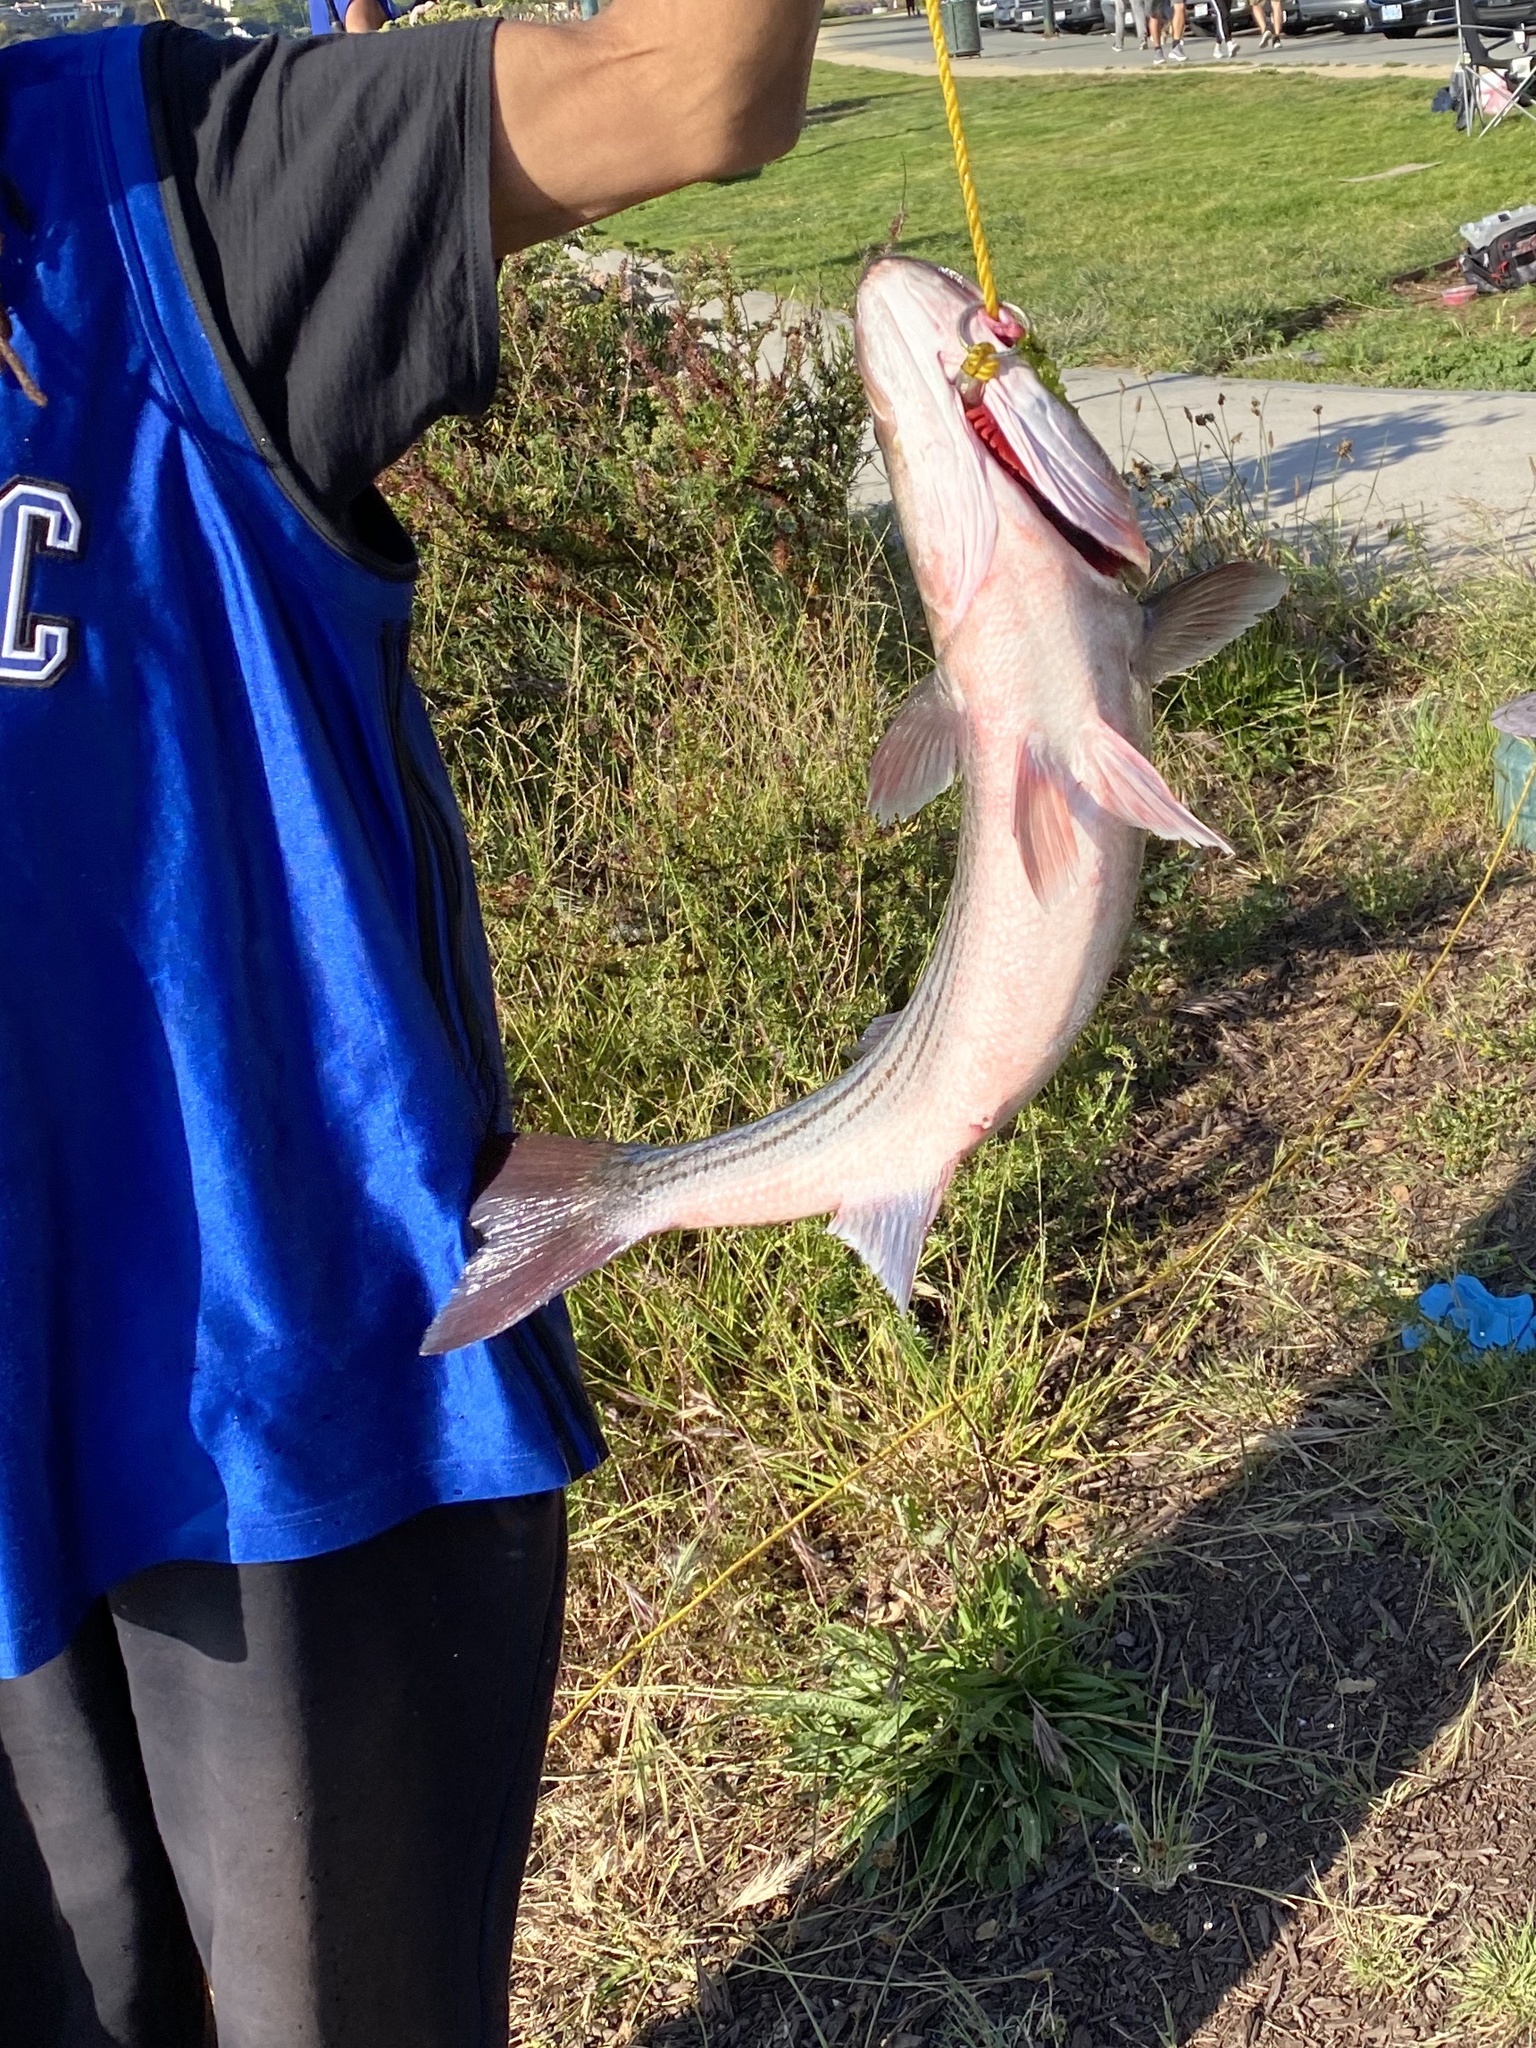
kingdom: Animalia
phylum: Chordata
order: Perciformes
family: Moronidae
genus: Morone
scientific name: Morone saxatilis
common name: Striped bass
